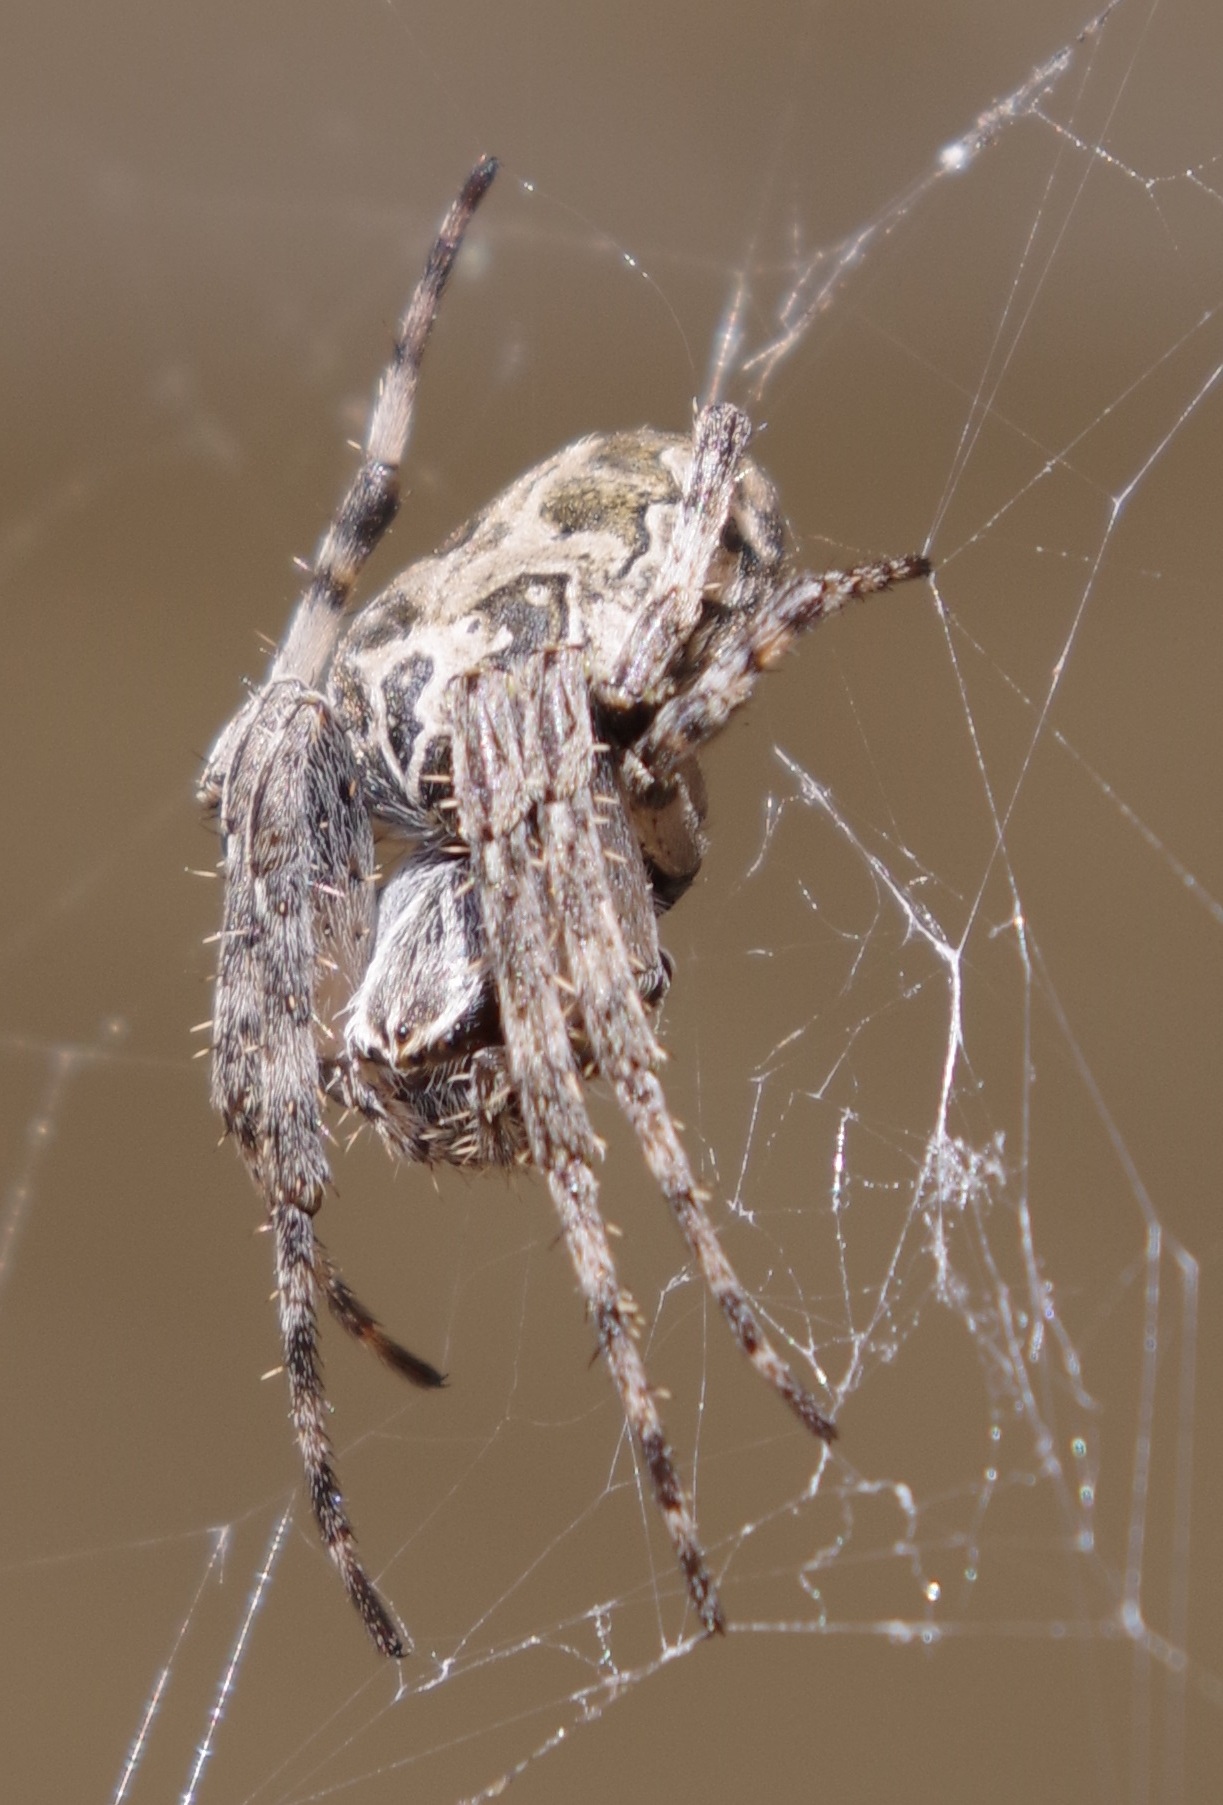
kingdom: Animalia
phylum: Arthropoda
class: Arachnida
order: Araneae
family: Araneidae
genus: Larinioides
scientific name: Larinioides sclopetarius
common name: Bridge orbweaver
